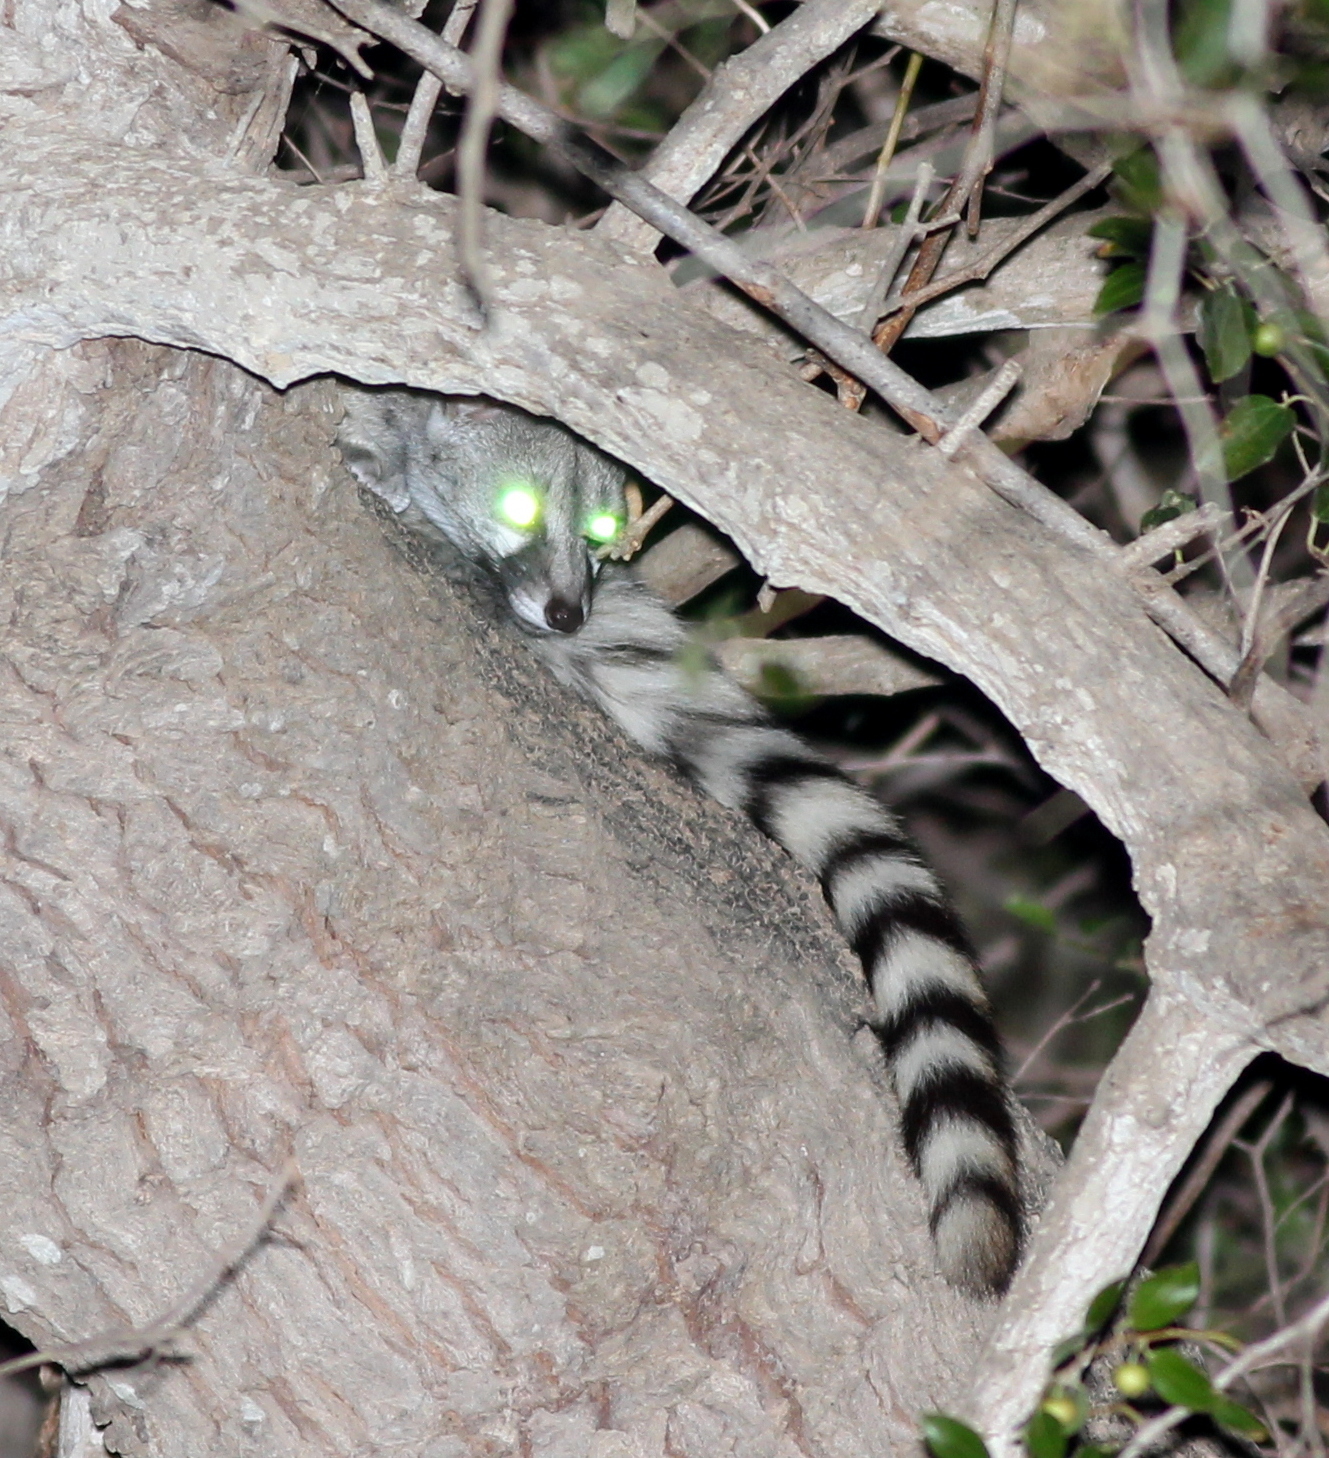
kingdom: Animalia
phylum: Chordata
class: Mammalia
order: Carnivora
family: Viverridae
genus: Genetta
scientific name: Genetta genetta
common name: Common genet
